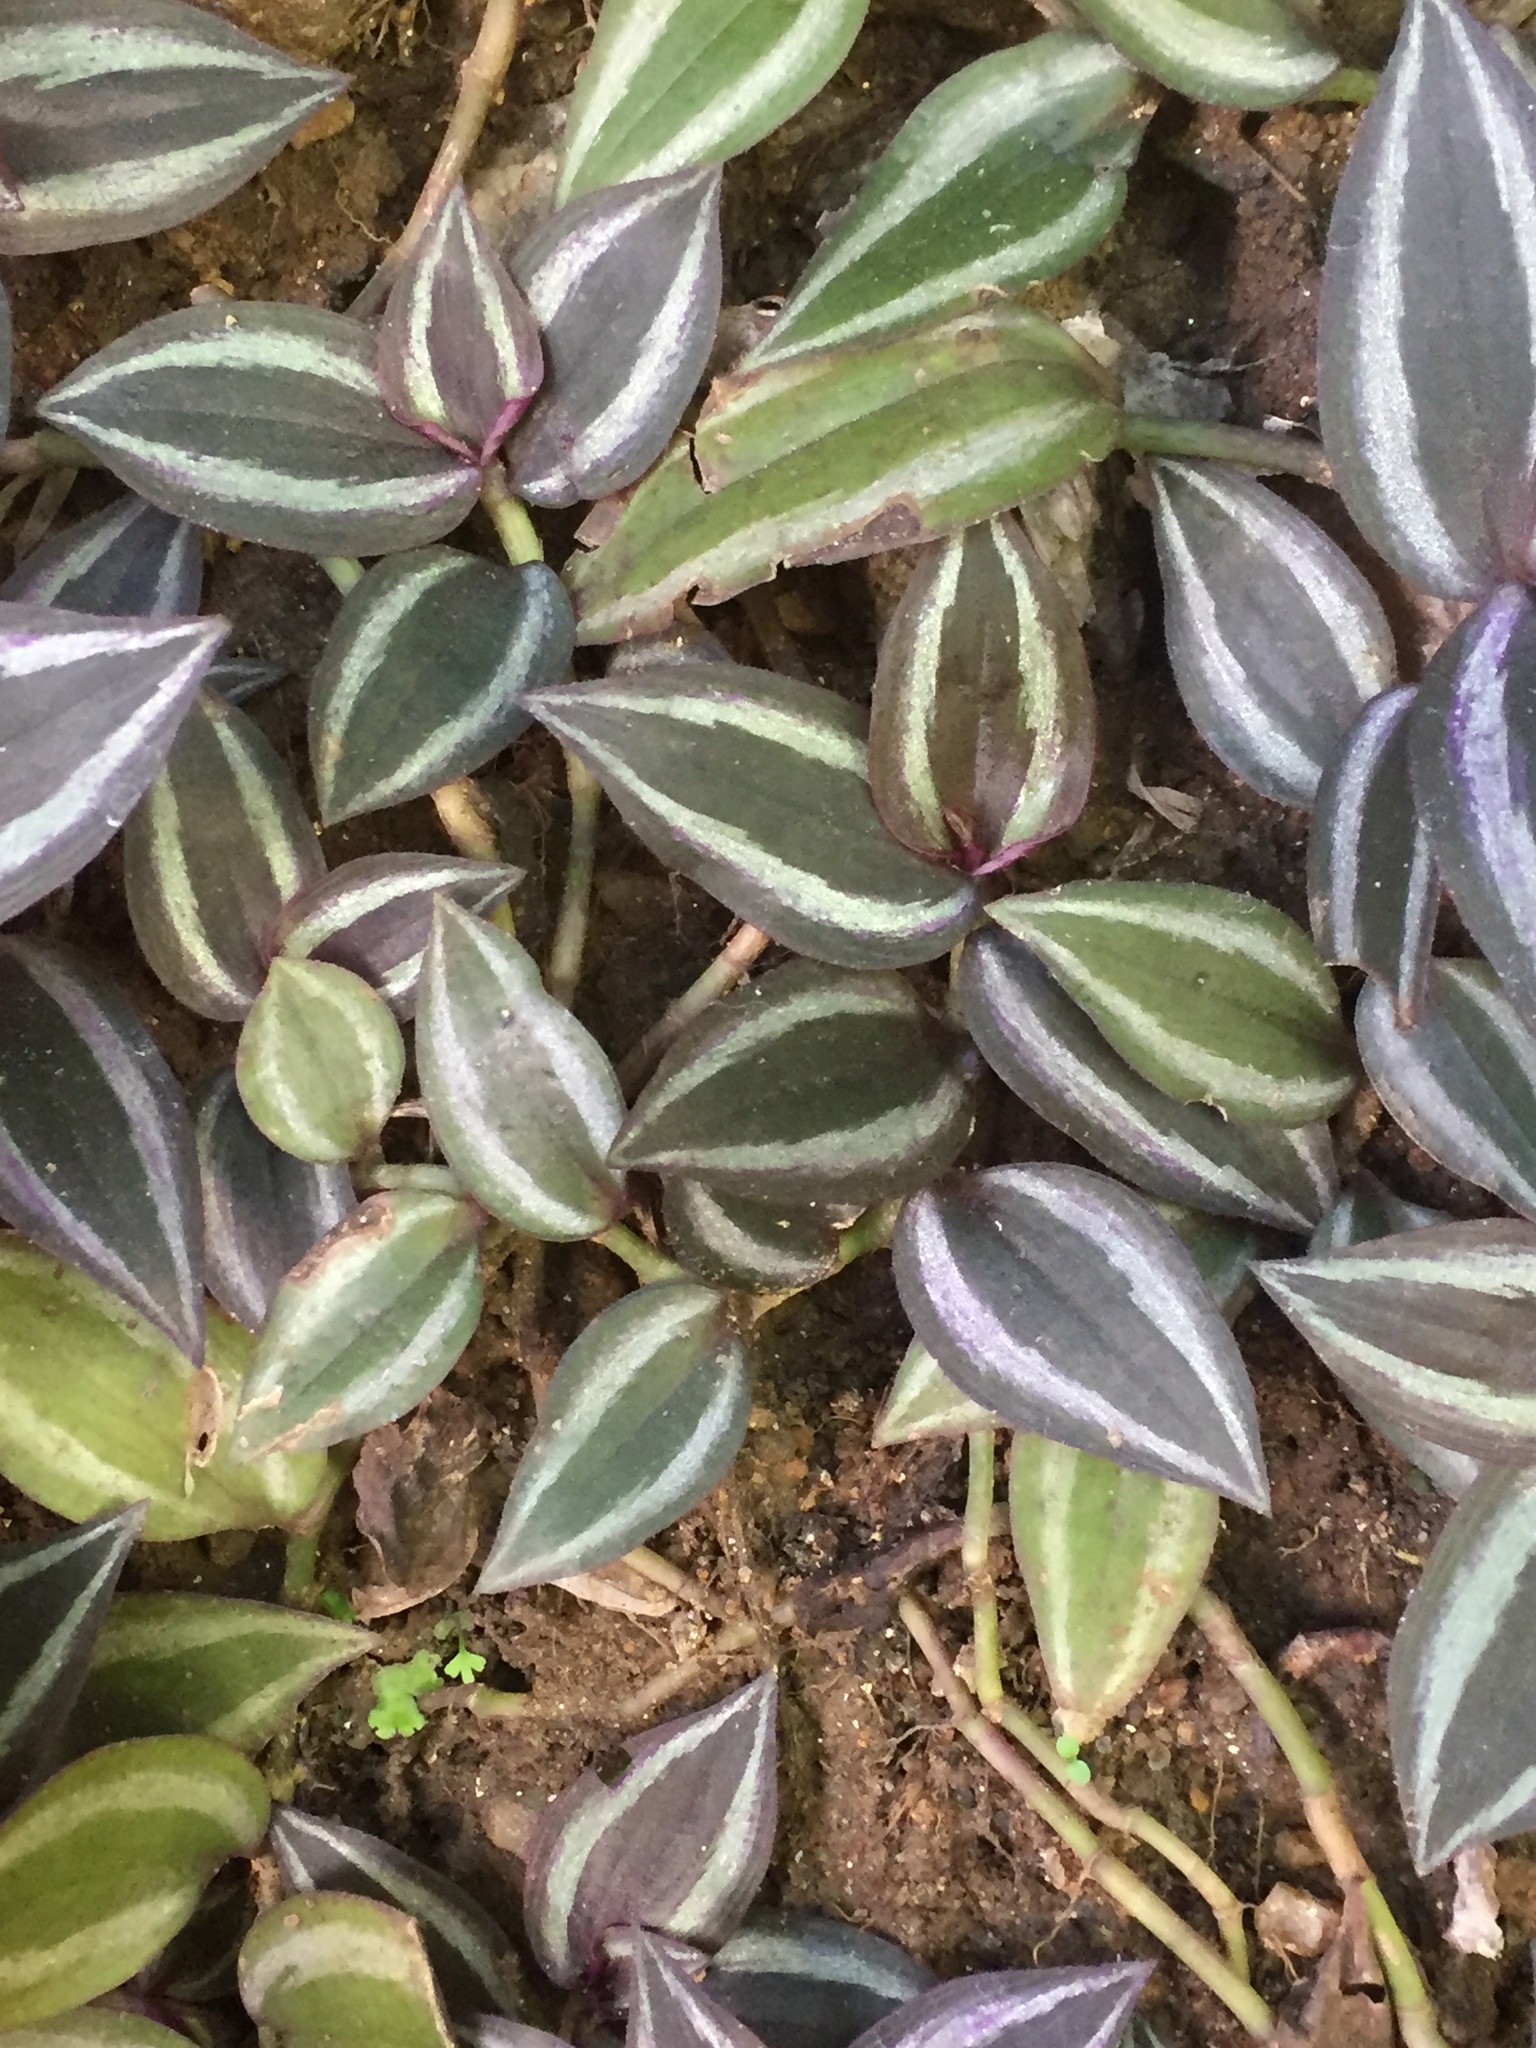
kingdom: Plantae
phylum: Tracheophyta
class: Liliopsida
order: Commelinales
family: Commelinaceae
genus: Tradescantia
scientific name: Tradescantia zebrina
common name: Inchplant
